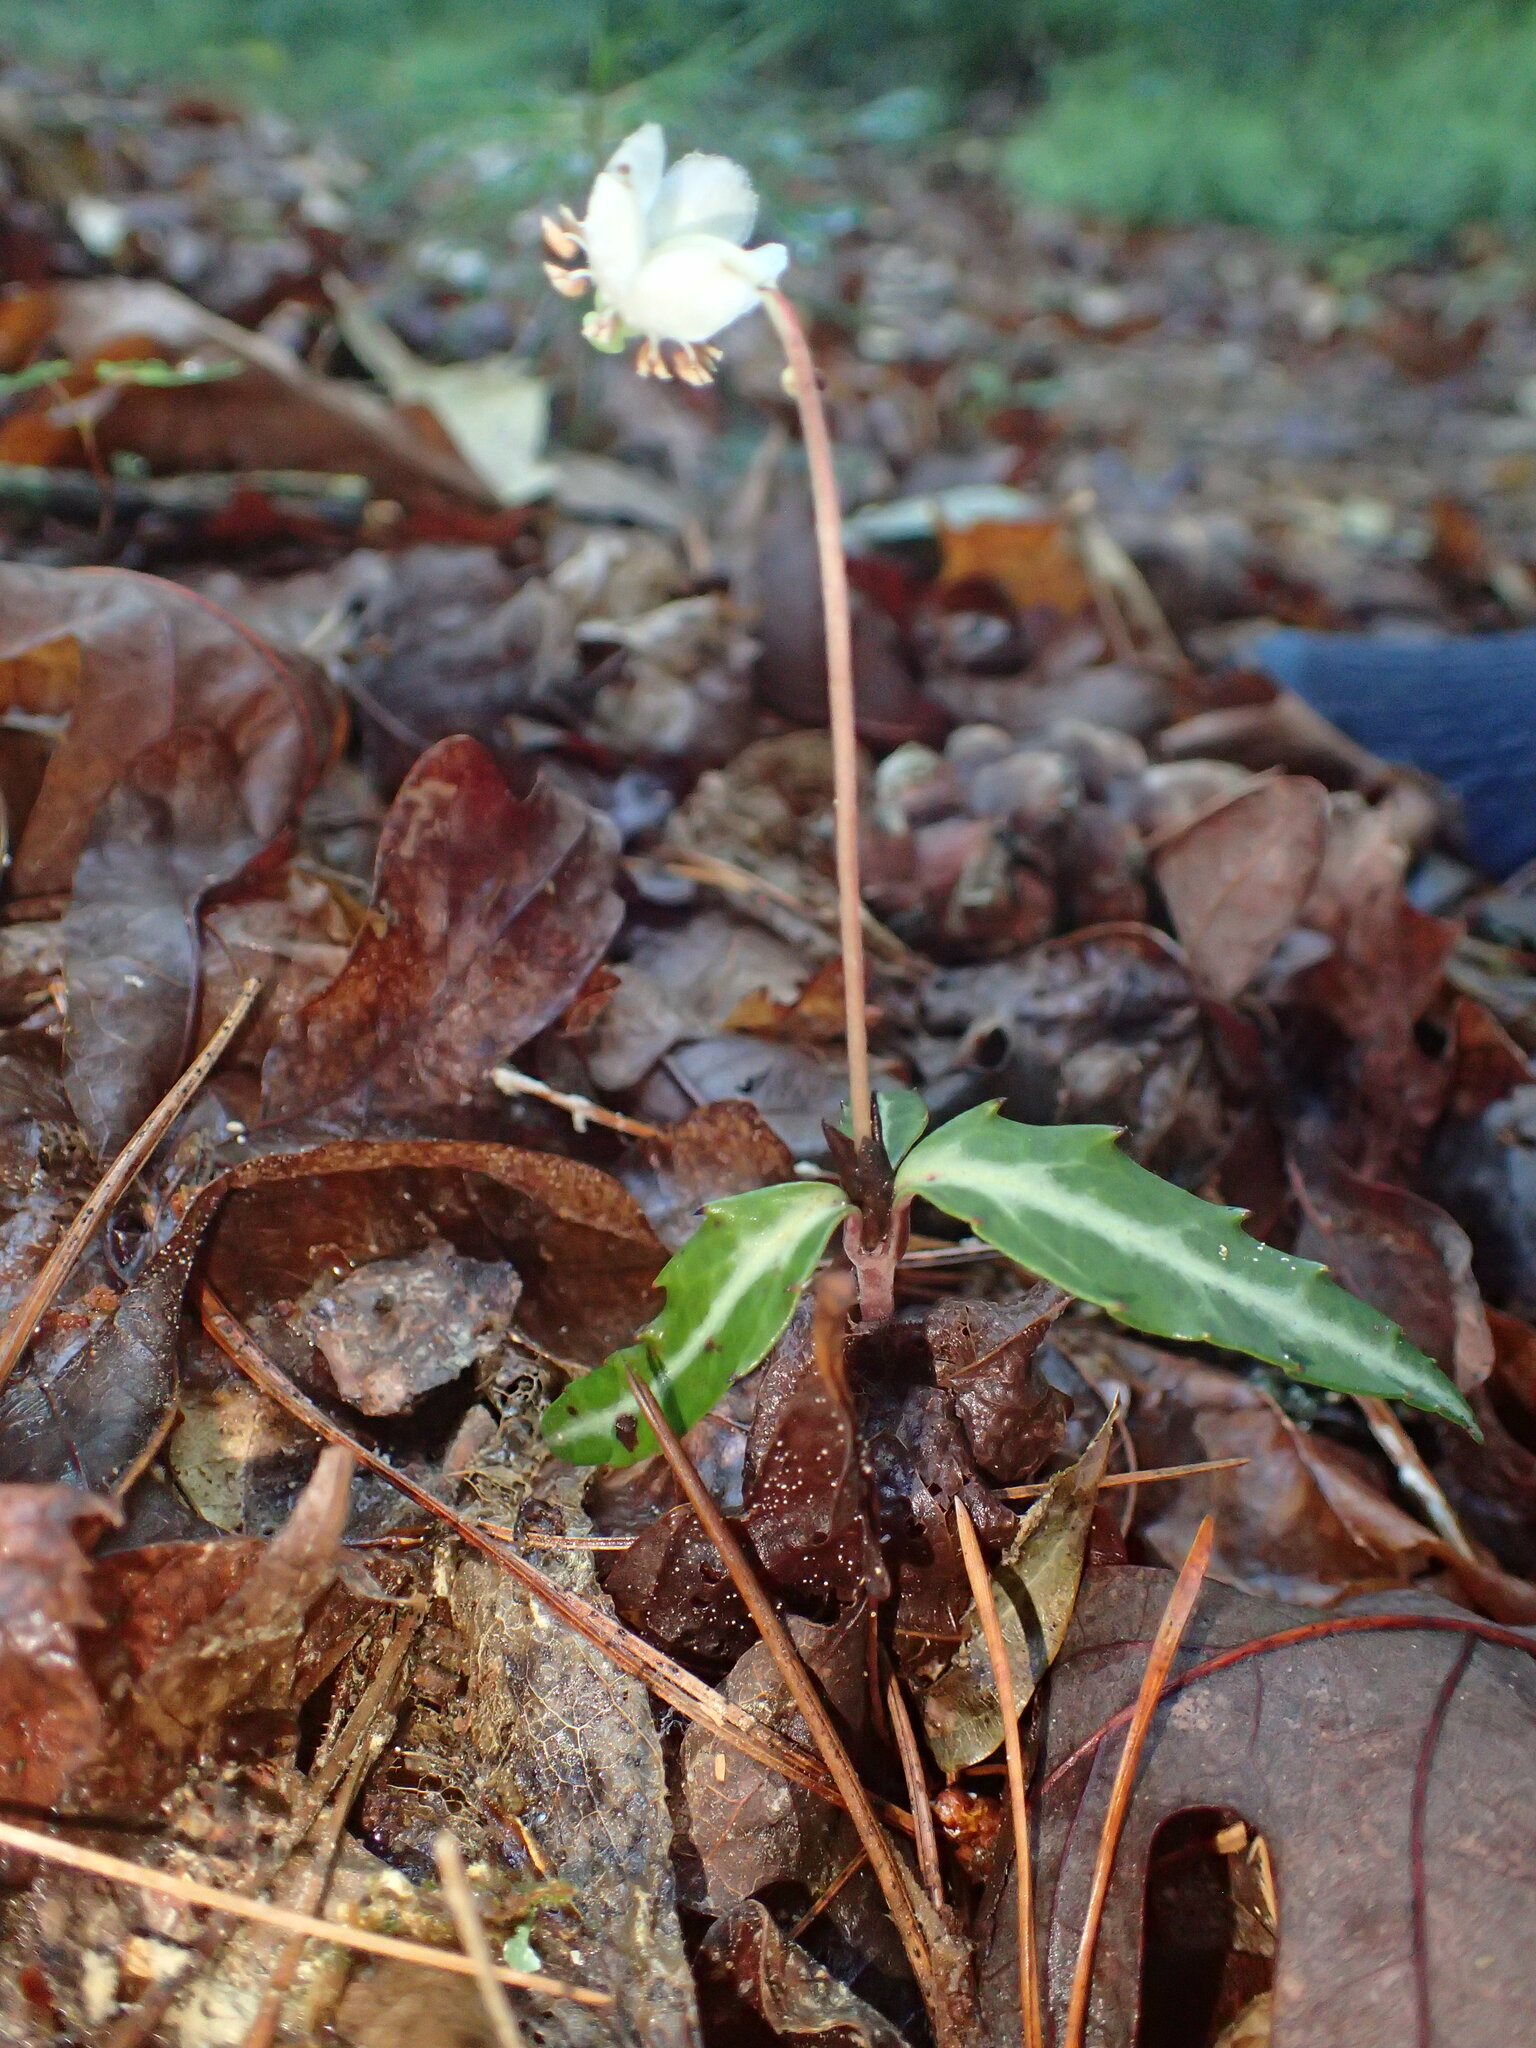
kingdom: Plantae
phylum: Tracheophyta
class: Magnoliopsida
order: Ericales
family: Ericaceae
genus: Chimaphila
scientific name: Chimaphila maculata
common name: Spotted pipsissewa
